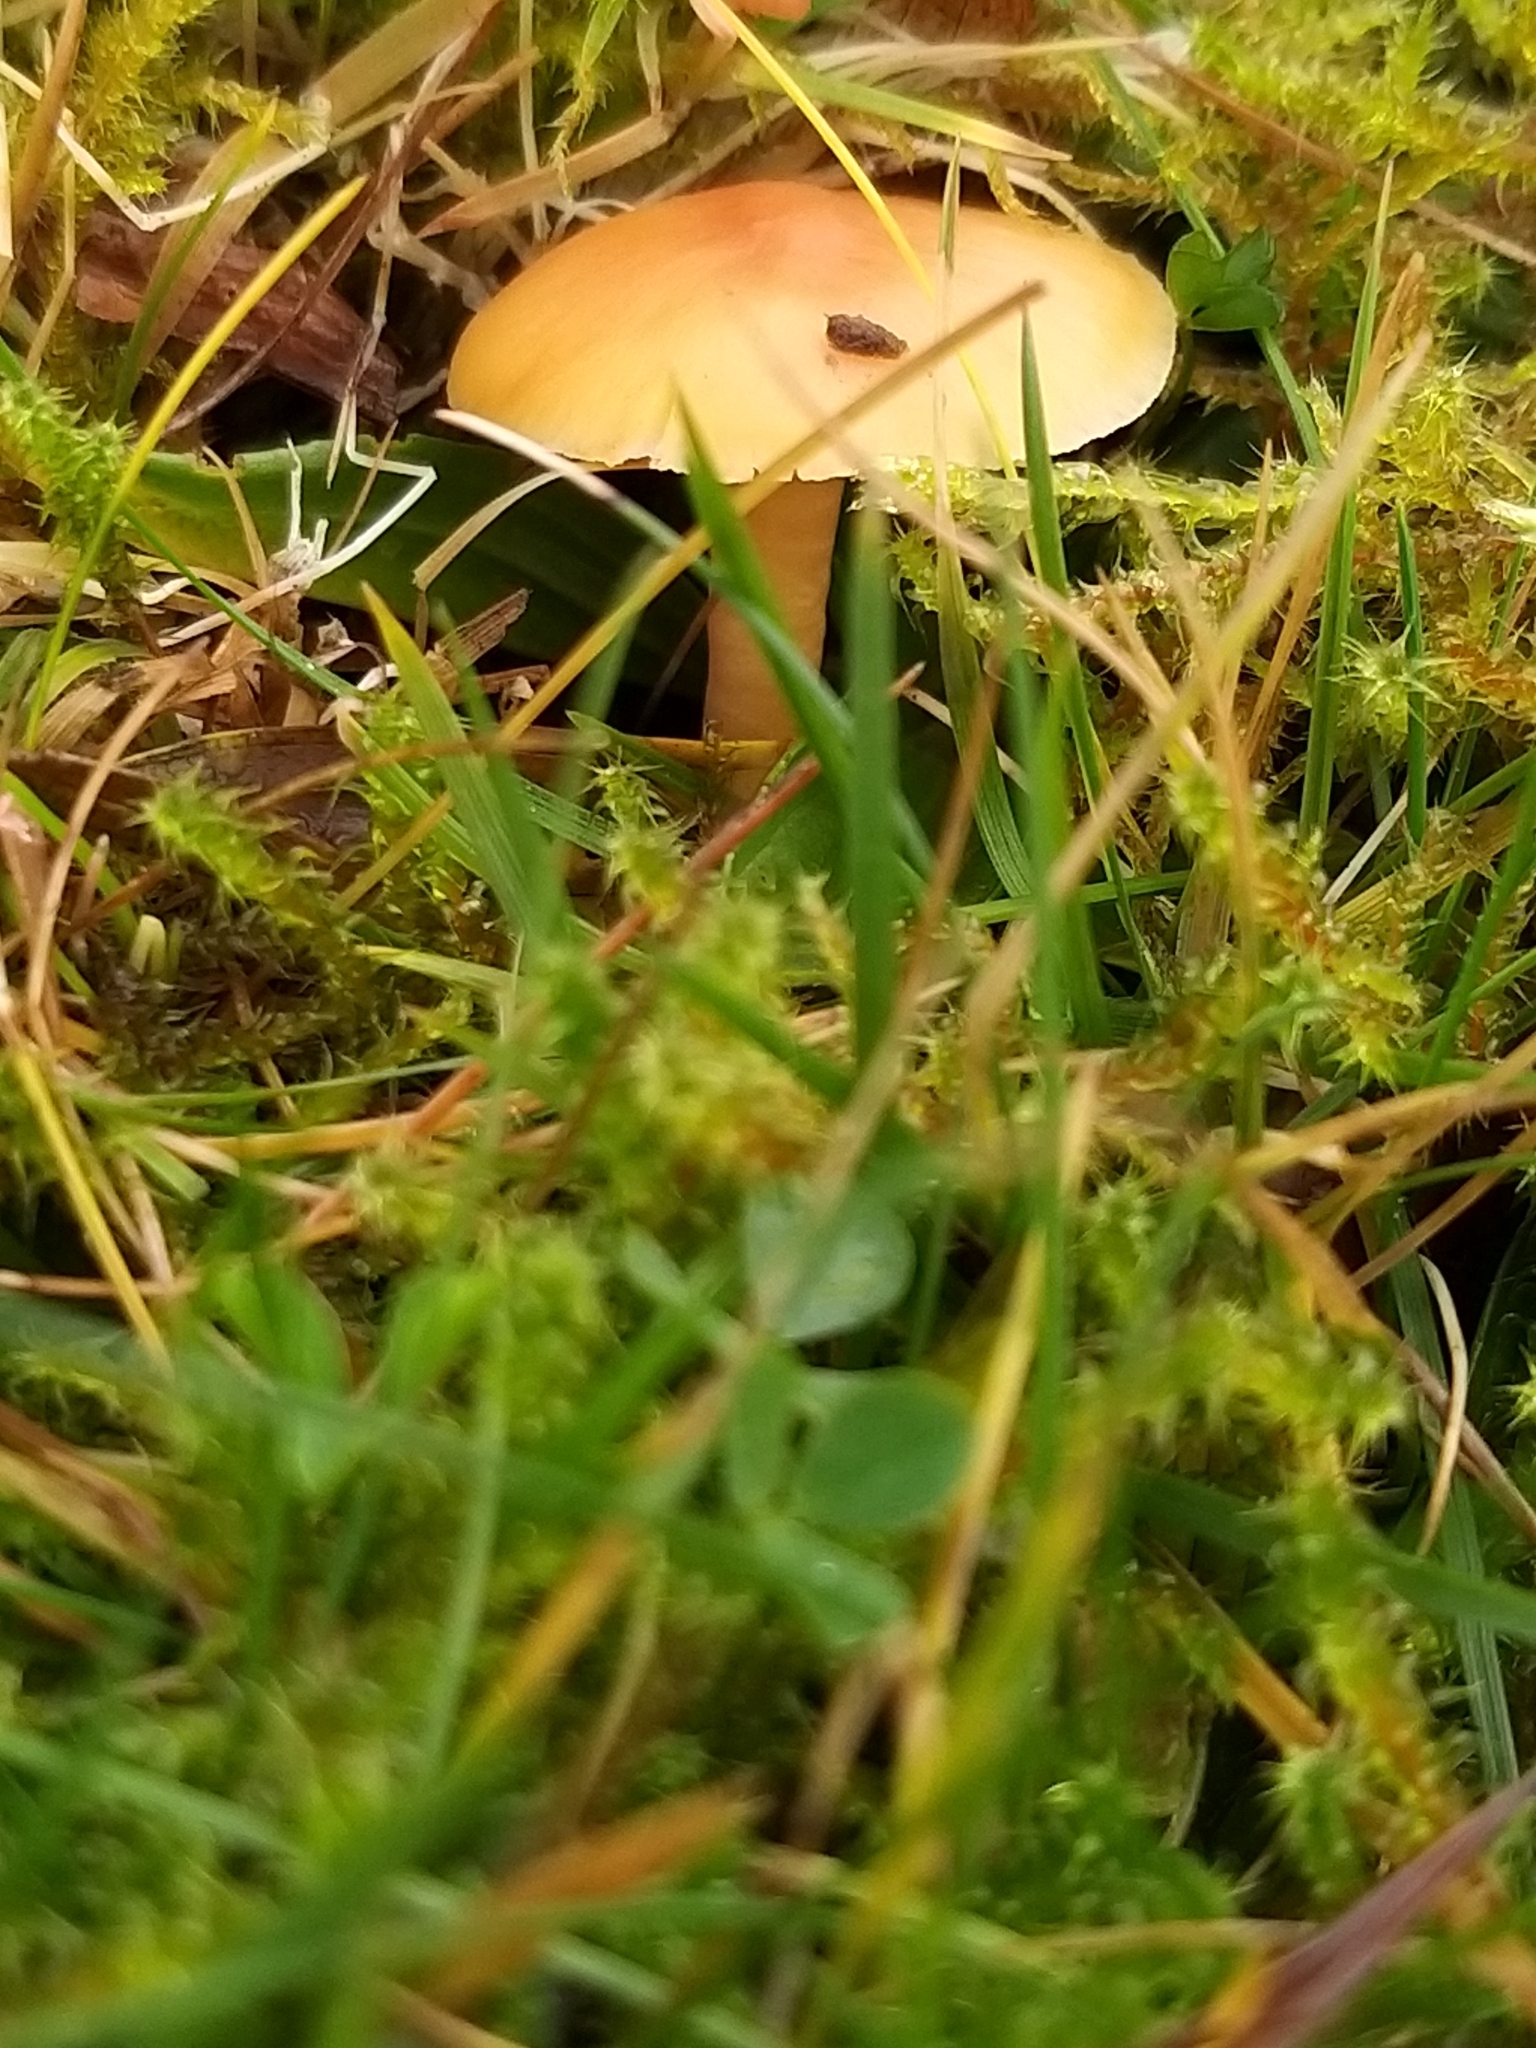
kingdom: Fungi
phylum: Basidiomycota
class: Agaricomycetes
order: Agaricales
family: Hygrophoraceae
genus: Cuphophyllus
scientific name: Cuphophyllus pratensis
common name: Meadow waxcap
